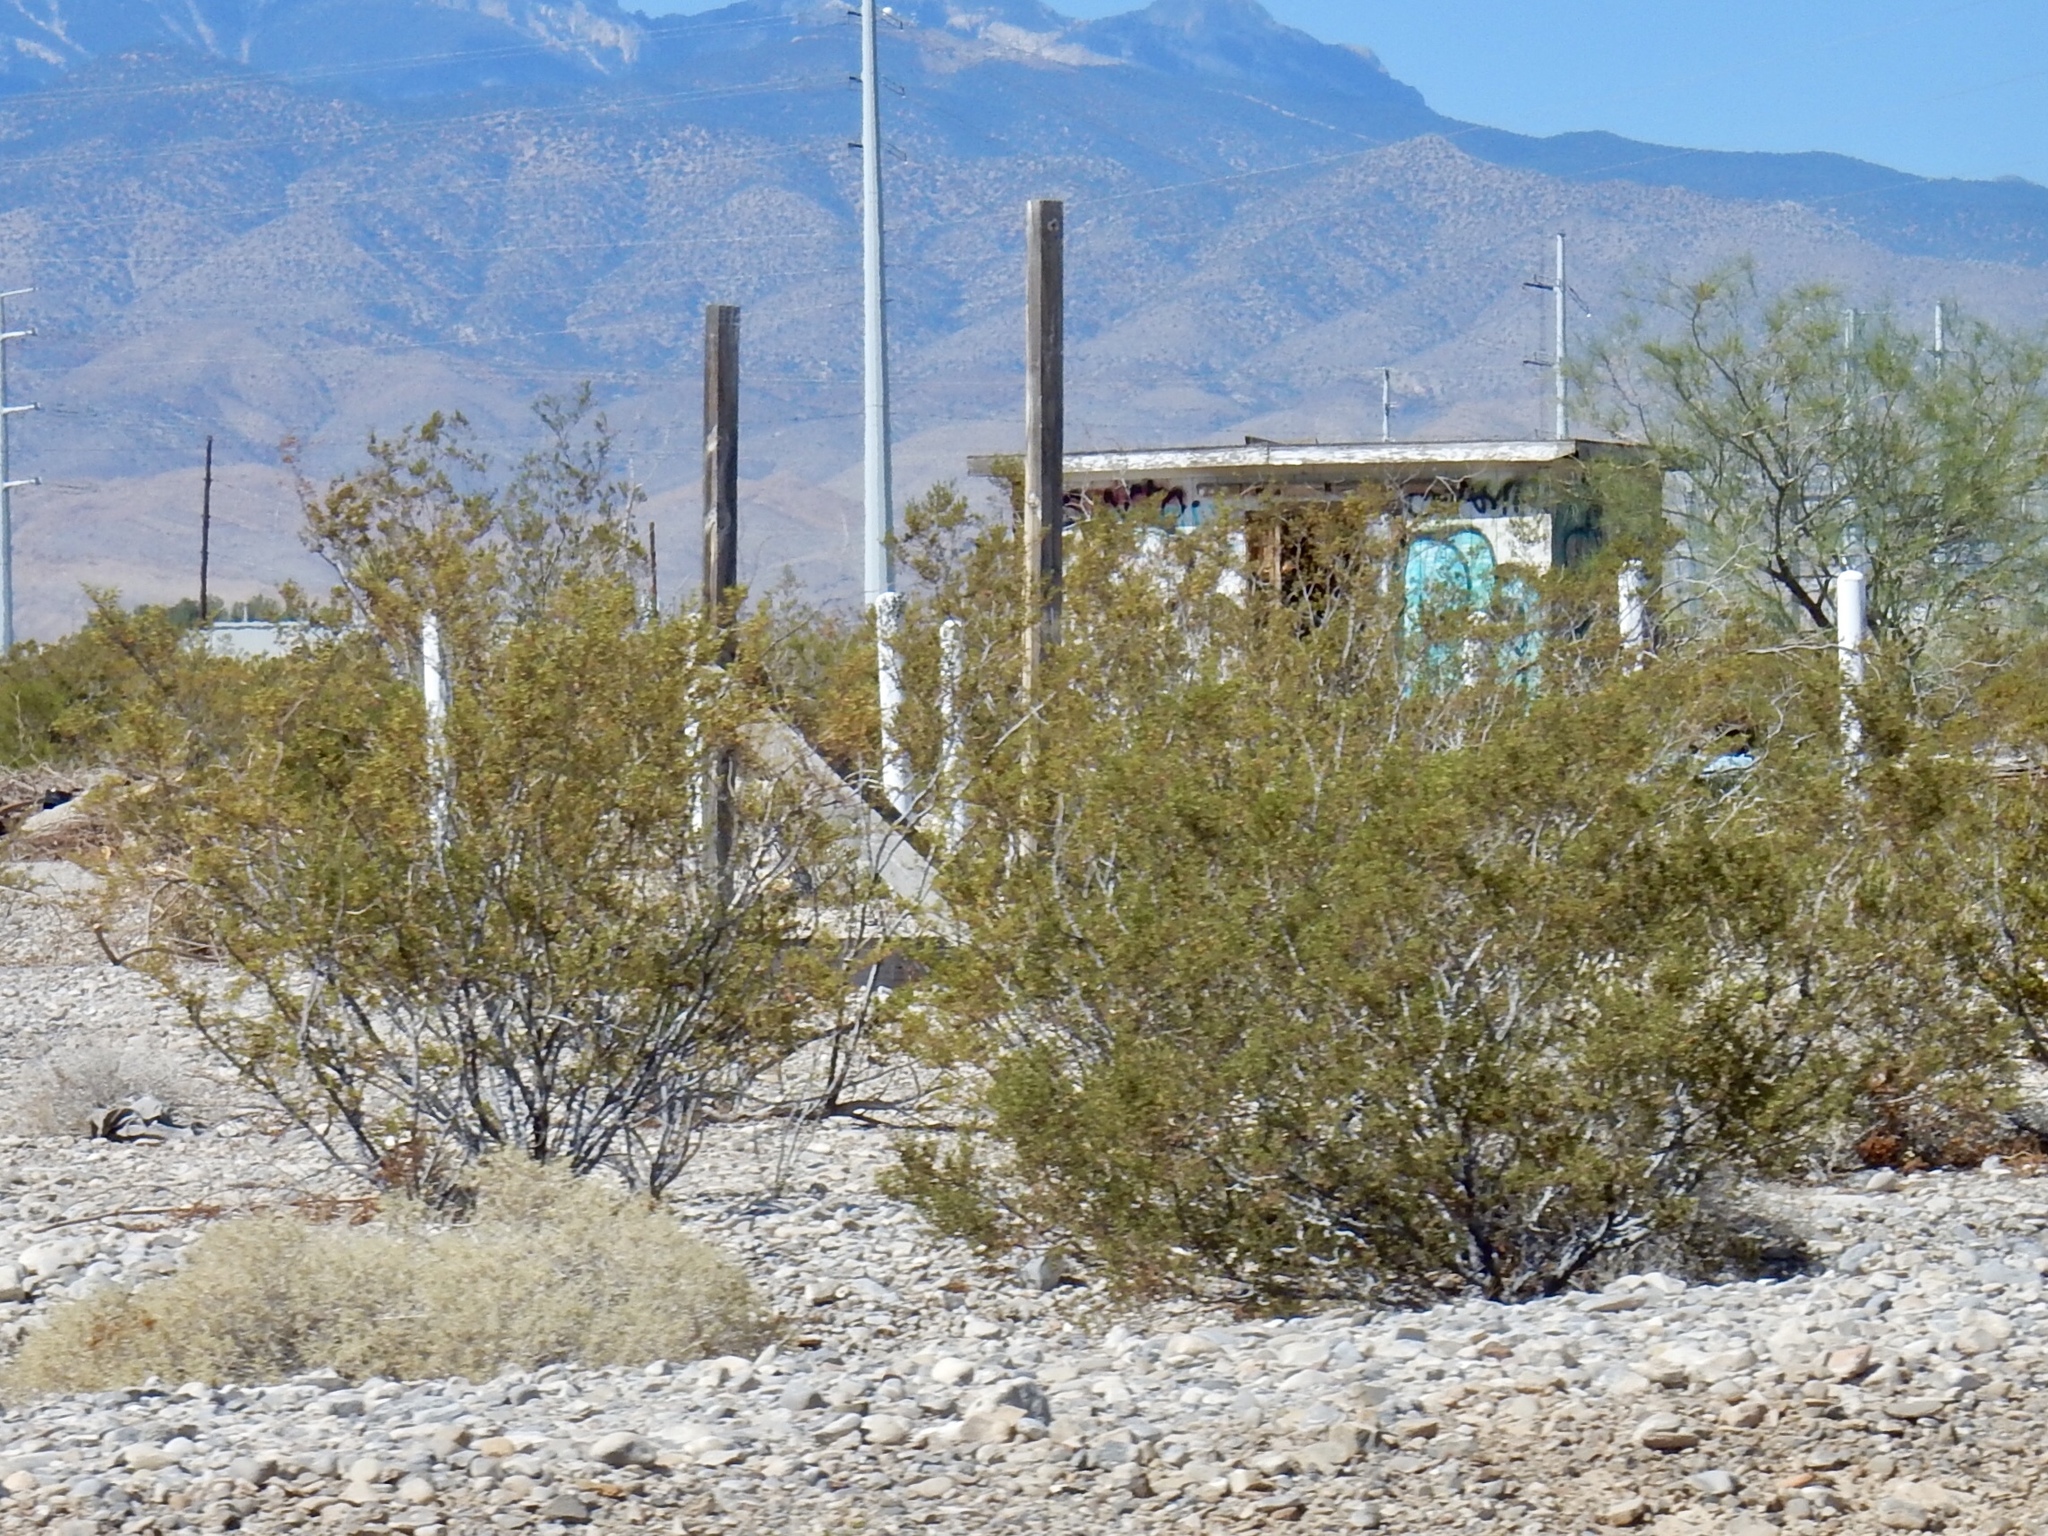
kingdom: Plantae
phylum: Tracheophyta
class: Magnoliopsida
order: Zygophyllales
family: Zygophyllaceae
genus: Larrea
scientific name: Larrea tridentata
